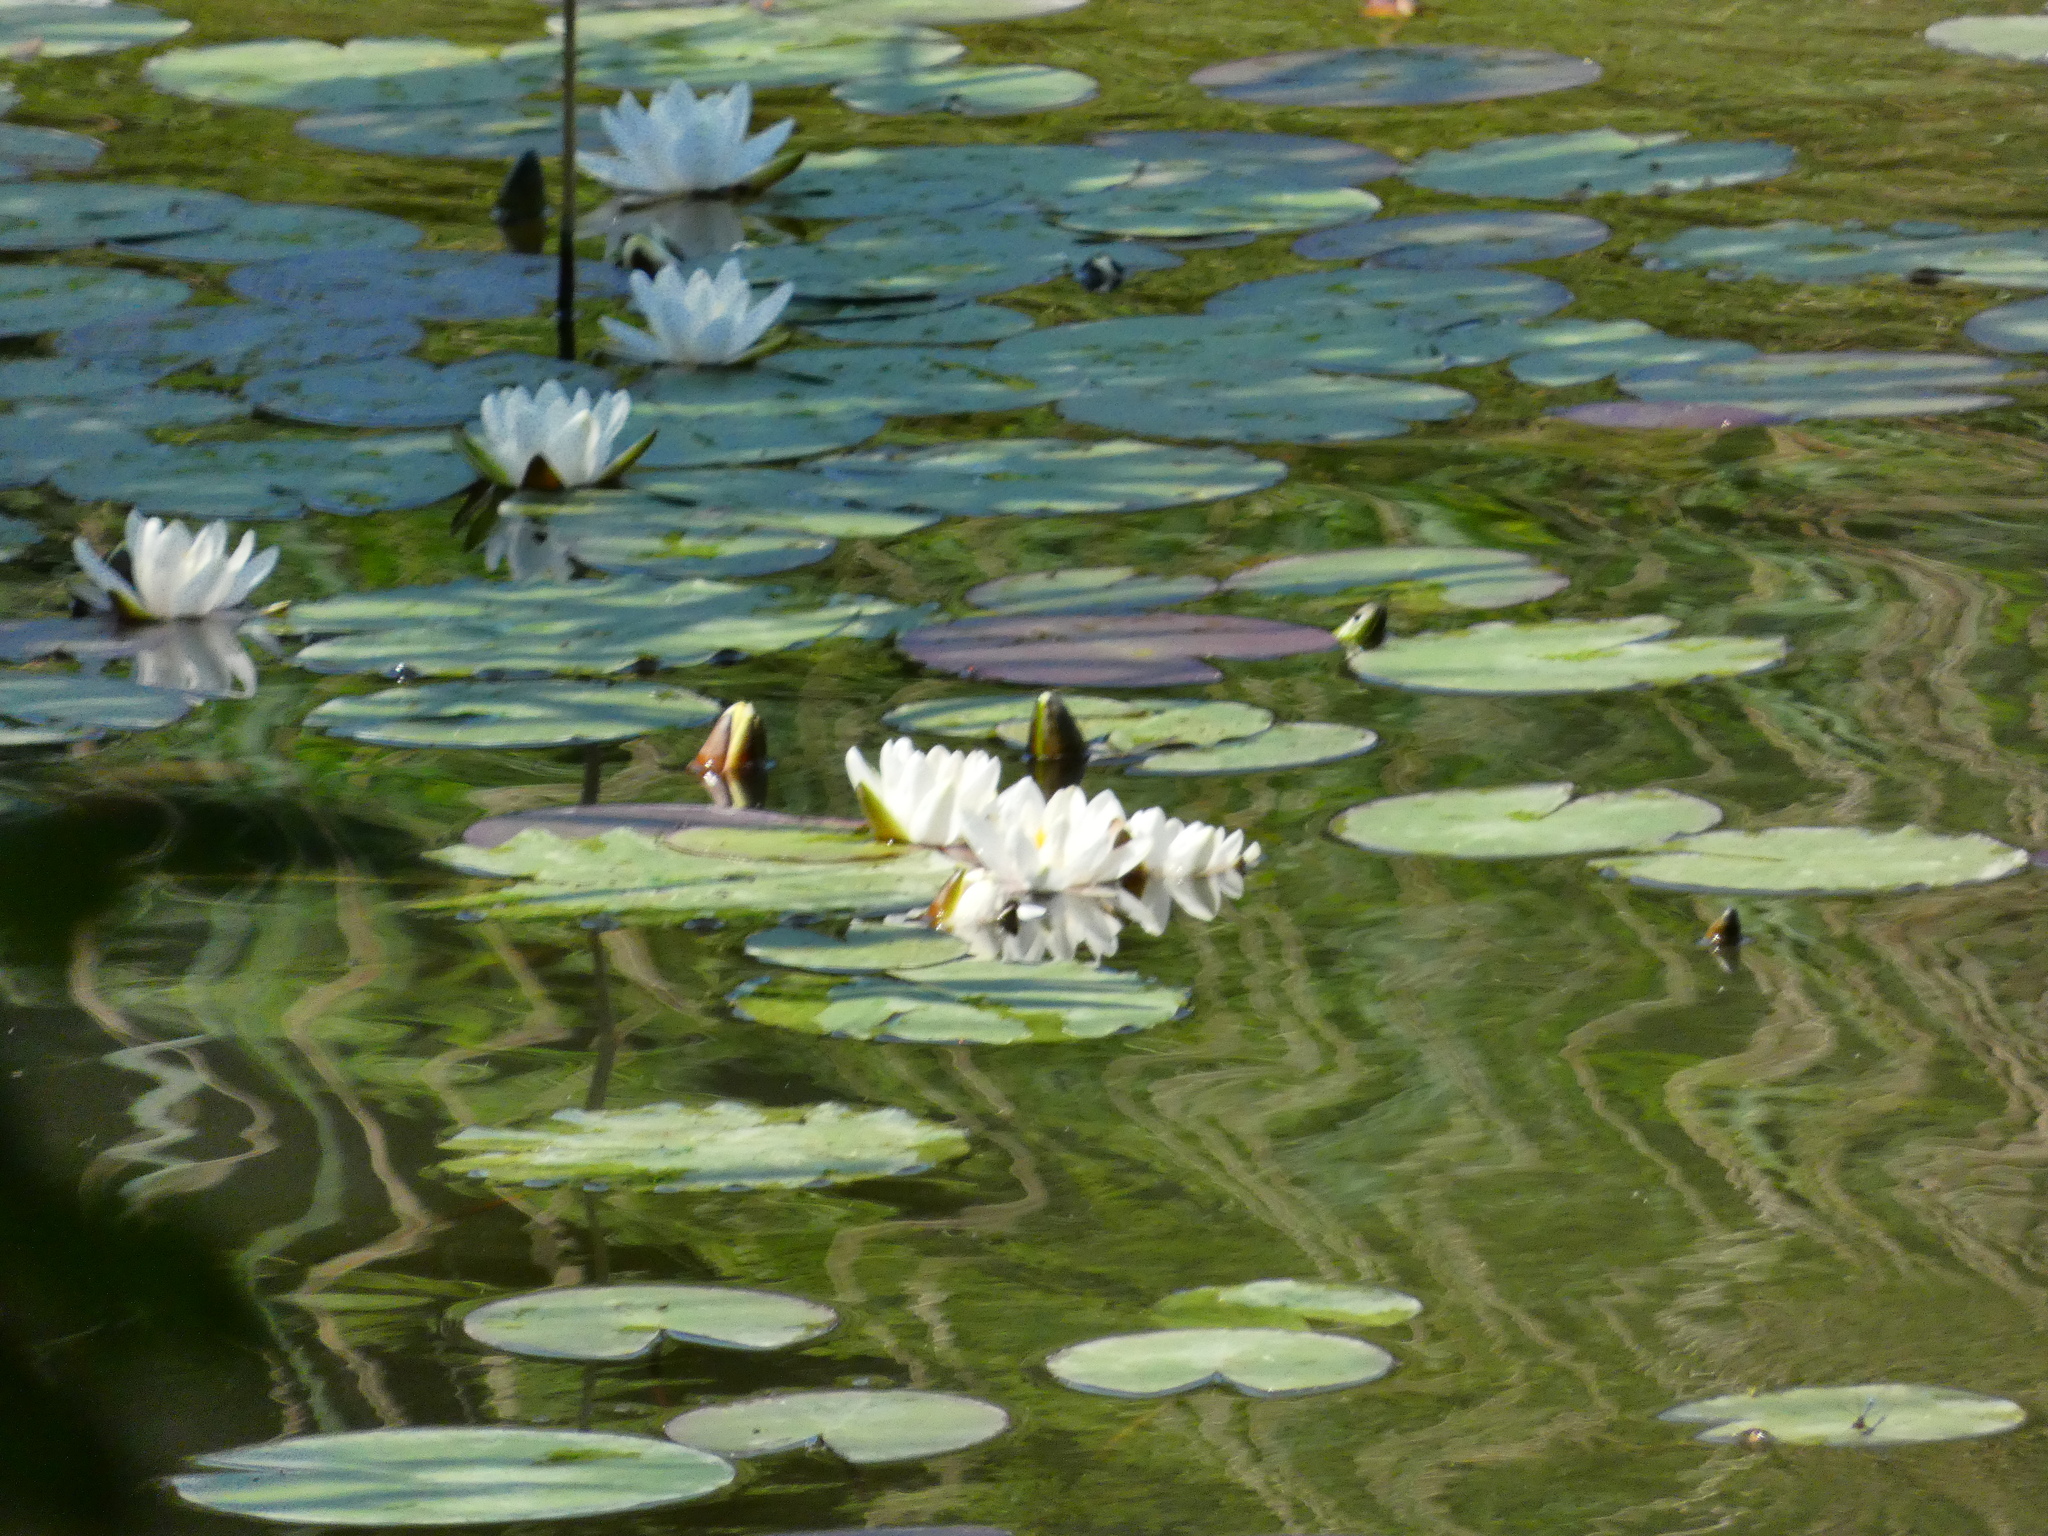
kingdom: Plantae
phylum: Tracheophyta
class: Magnoliopsida
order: Nymphaeales
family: Nymphaeaceae
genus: Nymphaea
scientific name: Nymphaea alba
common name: White water-lily
